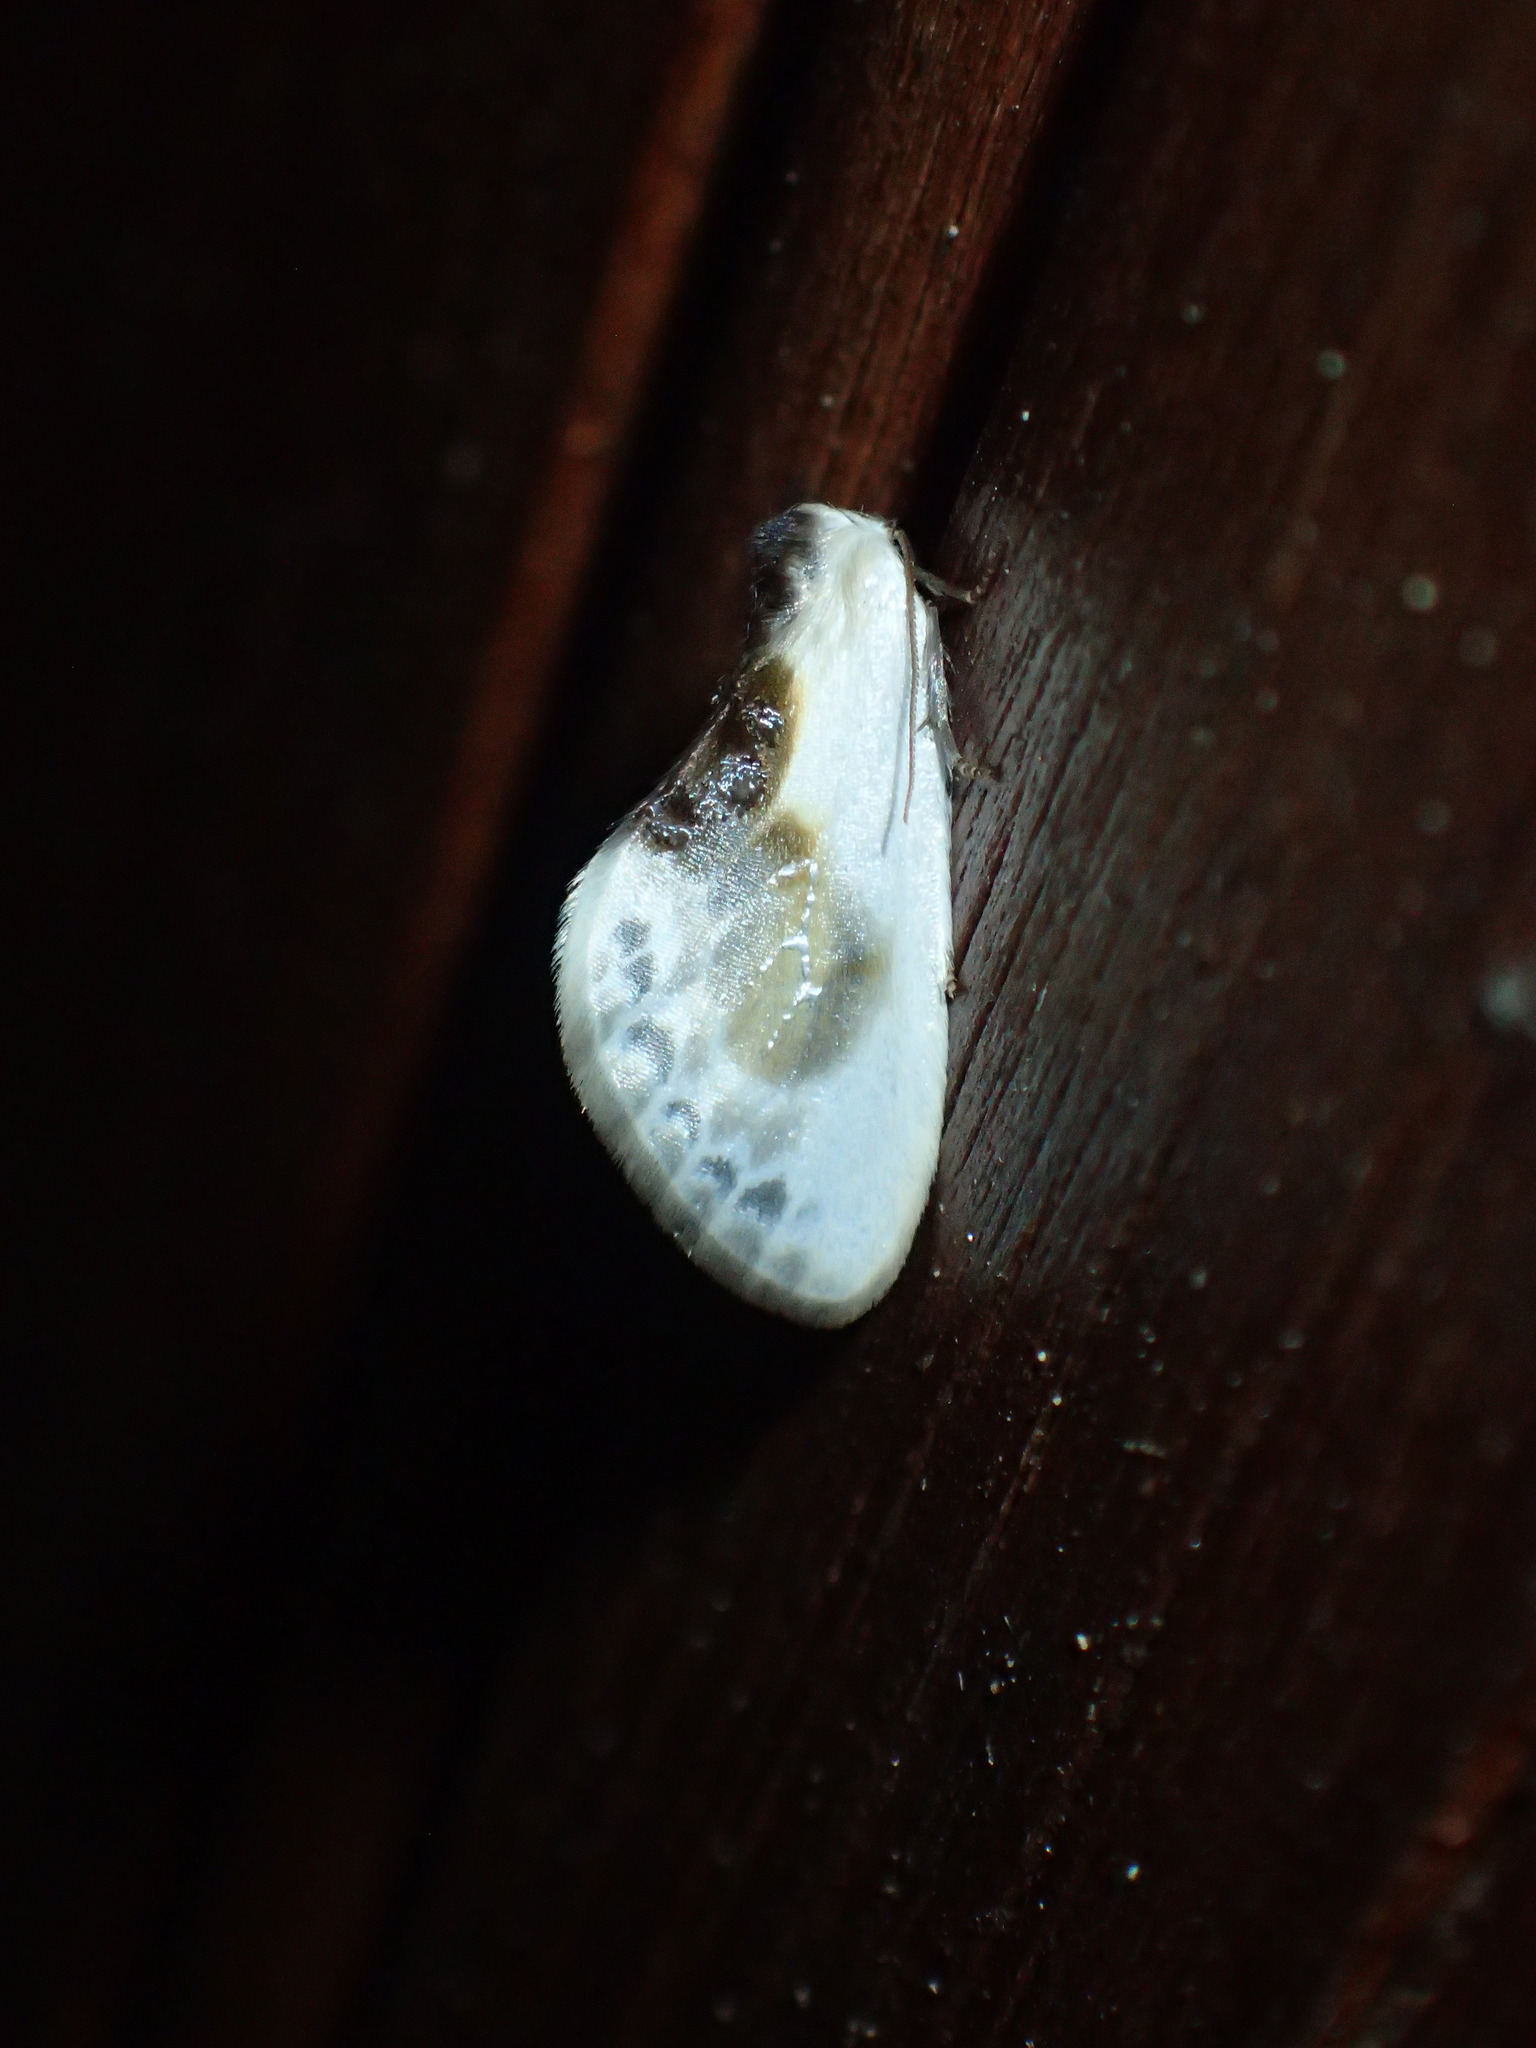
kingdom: Animalia
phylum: Arthropoda
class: Insecta
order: Lepidoptera
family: Drepanidae
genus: Cilix
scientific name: Cilix glaucata
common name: Chinese character
